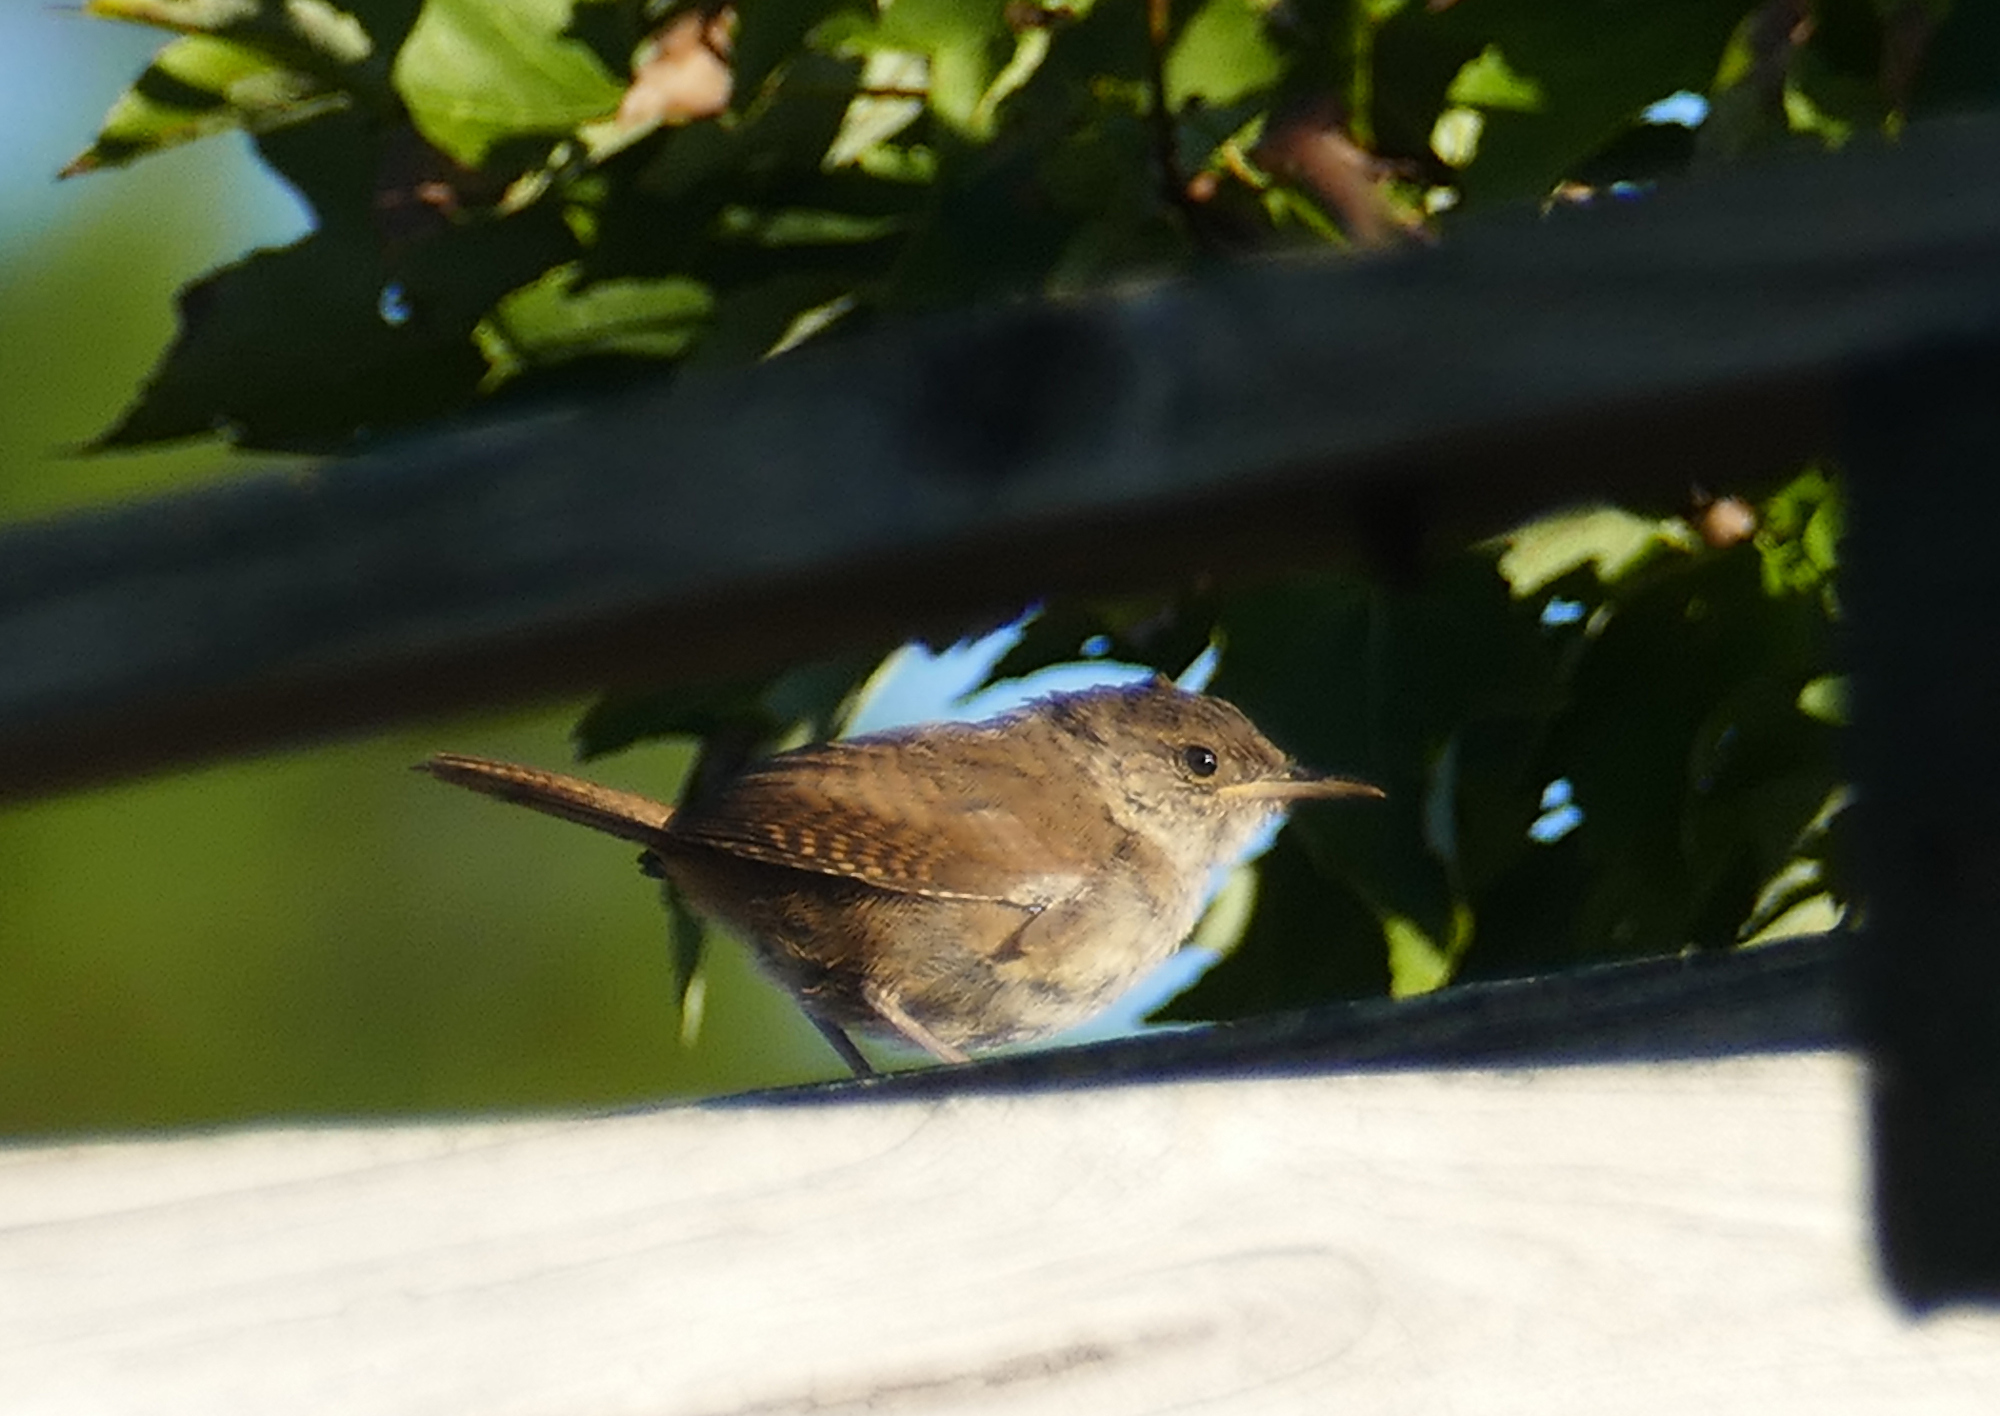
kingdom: Animalia
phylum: Chordata
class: Aves
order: Passeriformes
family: Troglodytidae
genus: Troglodytes
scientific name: Troglodytes aedon
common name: House wren
